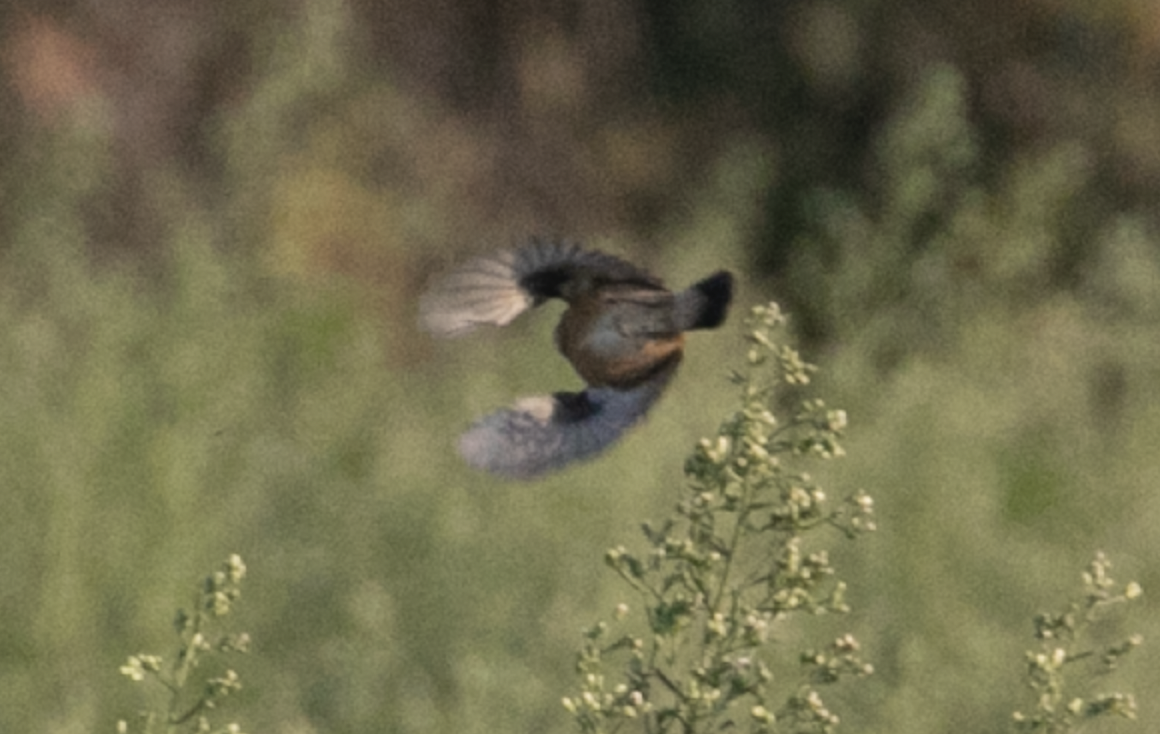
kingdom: Animalia
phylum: Chordata
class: Aves
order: Passeriformes
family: Muscicapidae
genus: Saxicola
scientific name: Saxicola rubicola
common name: European stonechat
